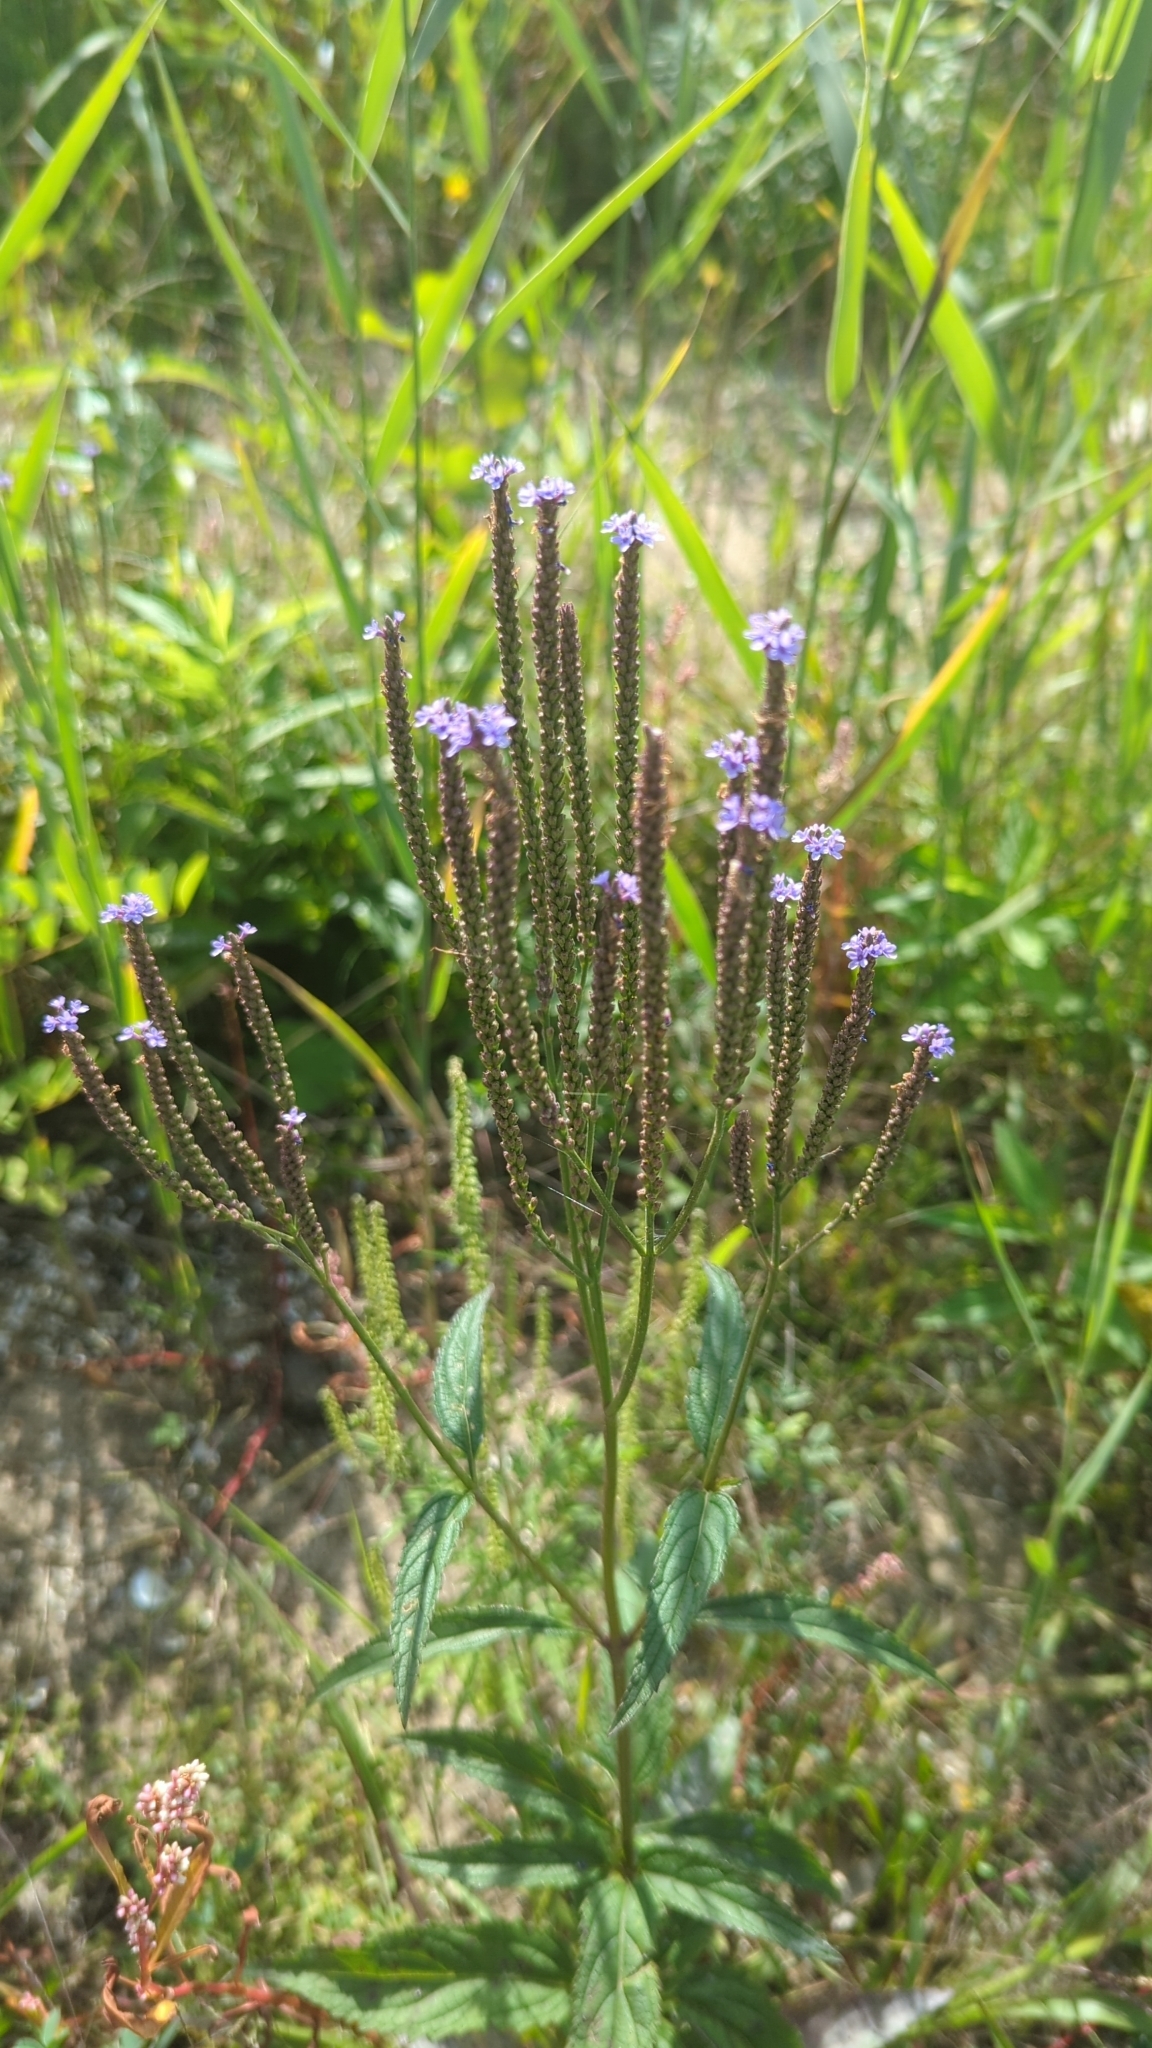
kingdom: Plantae
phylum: Tracheophyta
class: Magnoliopsida
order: Lamiales
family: Verbenaceae
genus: Verbena
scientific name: Verbena hastata
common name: American blue vervain
